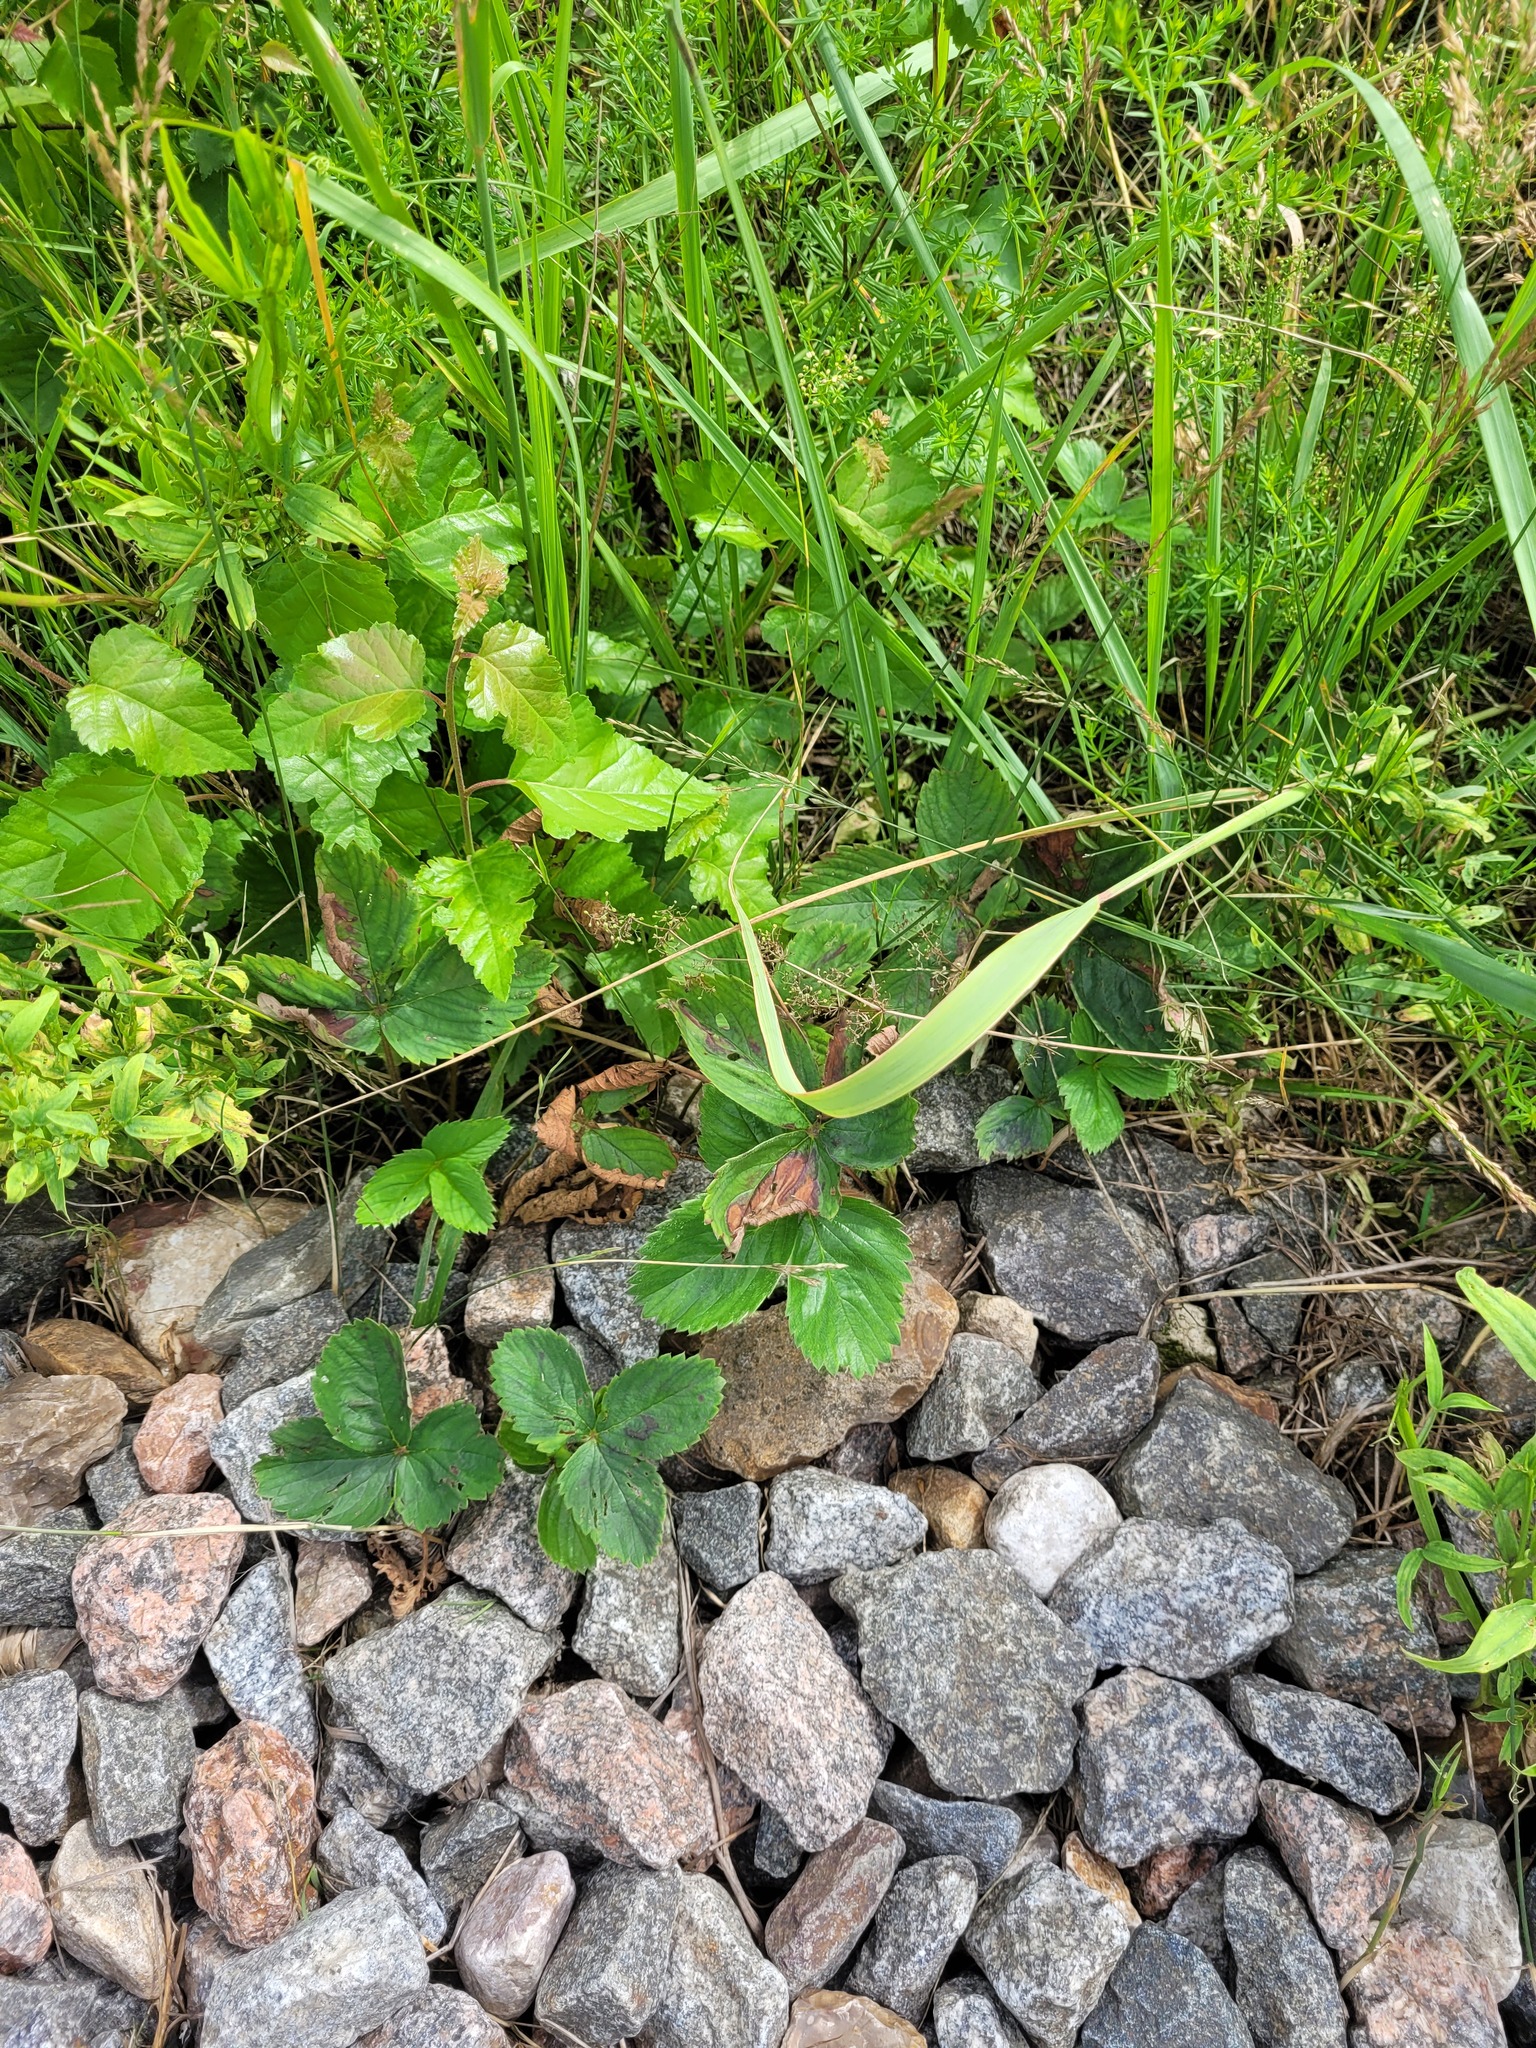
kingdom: Plantae
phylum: Tracheophyta
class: Magnoliopsida
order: Rosales
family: Rosaceae
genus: Fragaria
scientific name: Fragaria ananassa
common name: Garden strawberry
